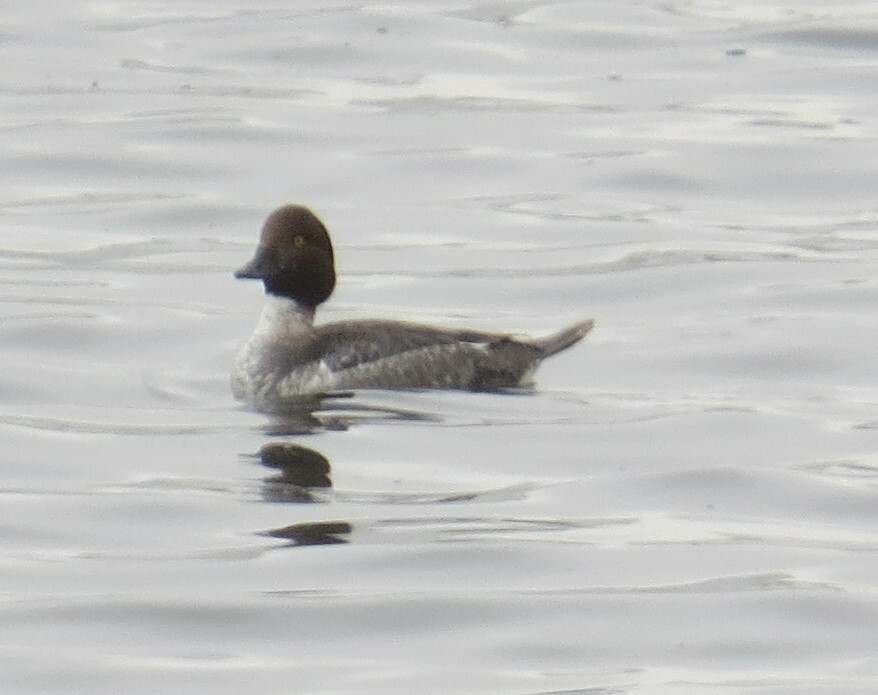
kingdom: Animalia
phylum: Chordata
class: Aves
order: Anseriformes
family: Anatidae
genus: Bucephala
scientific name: Bucephala clangula
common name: Common goldeneye
